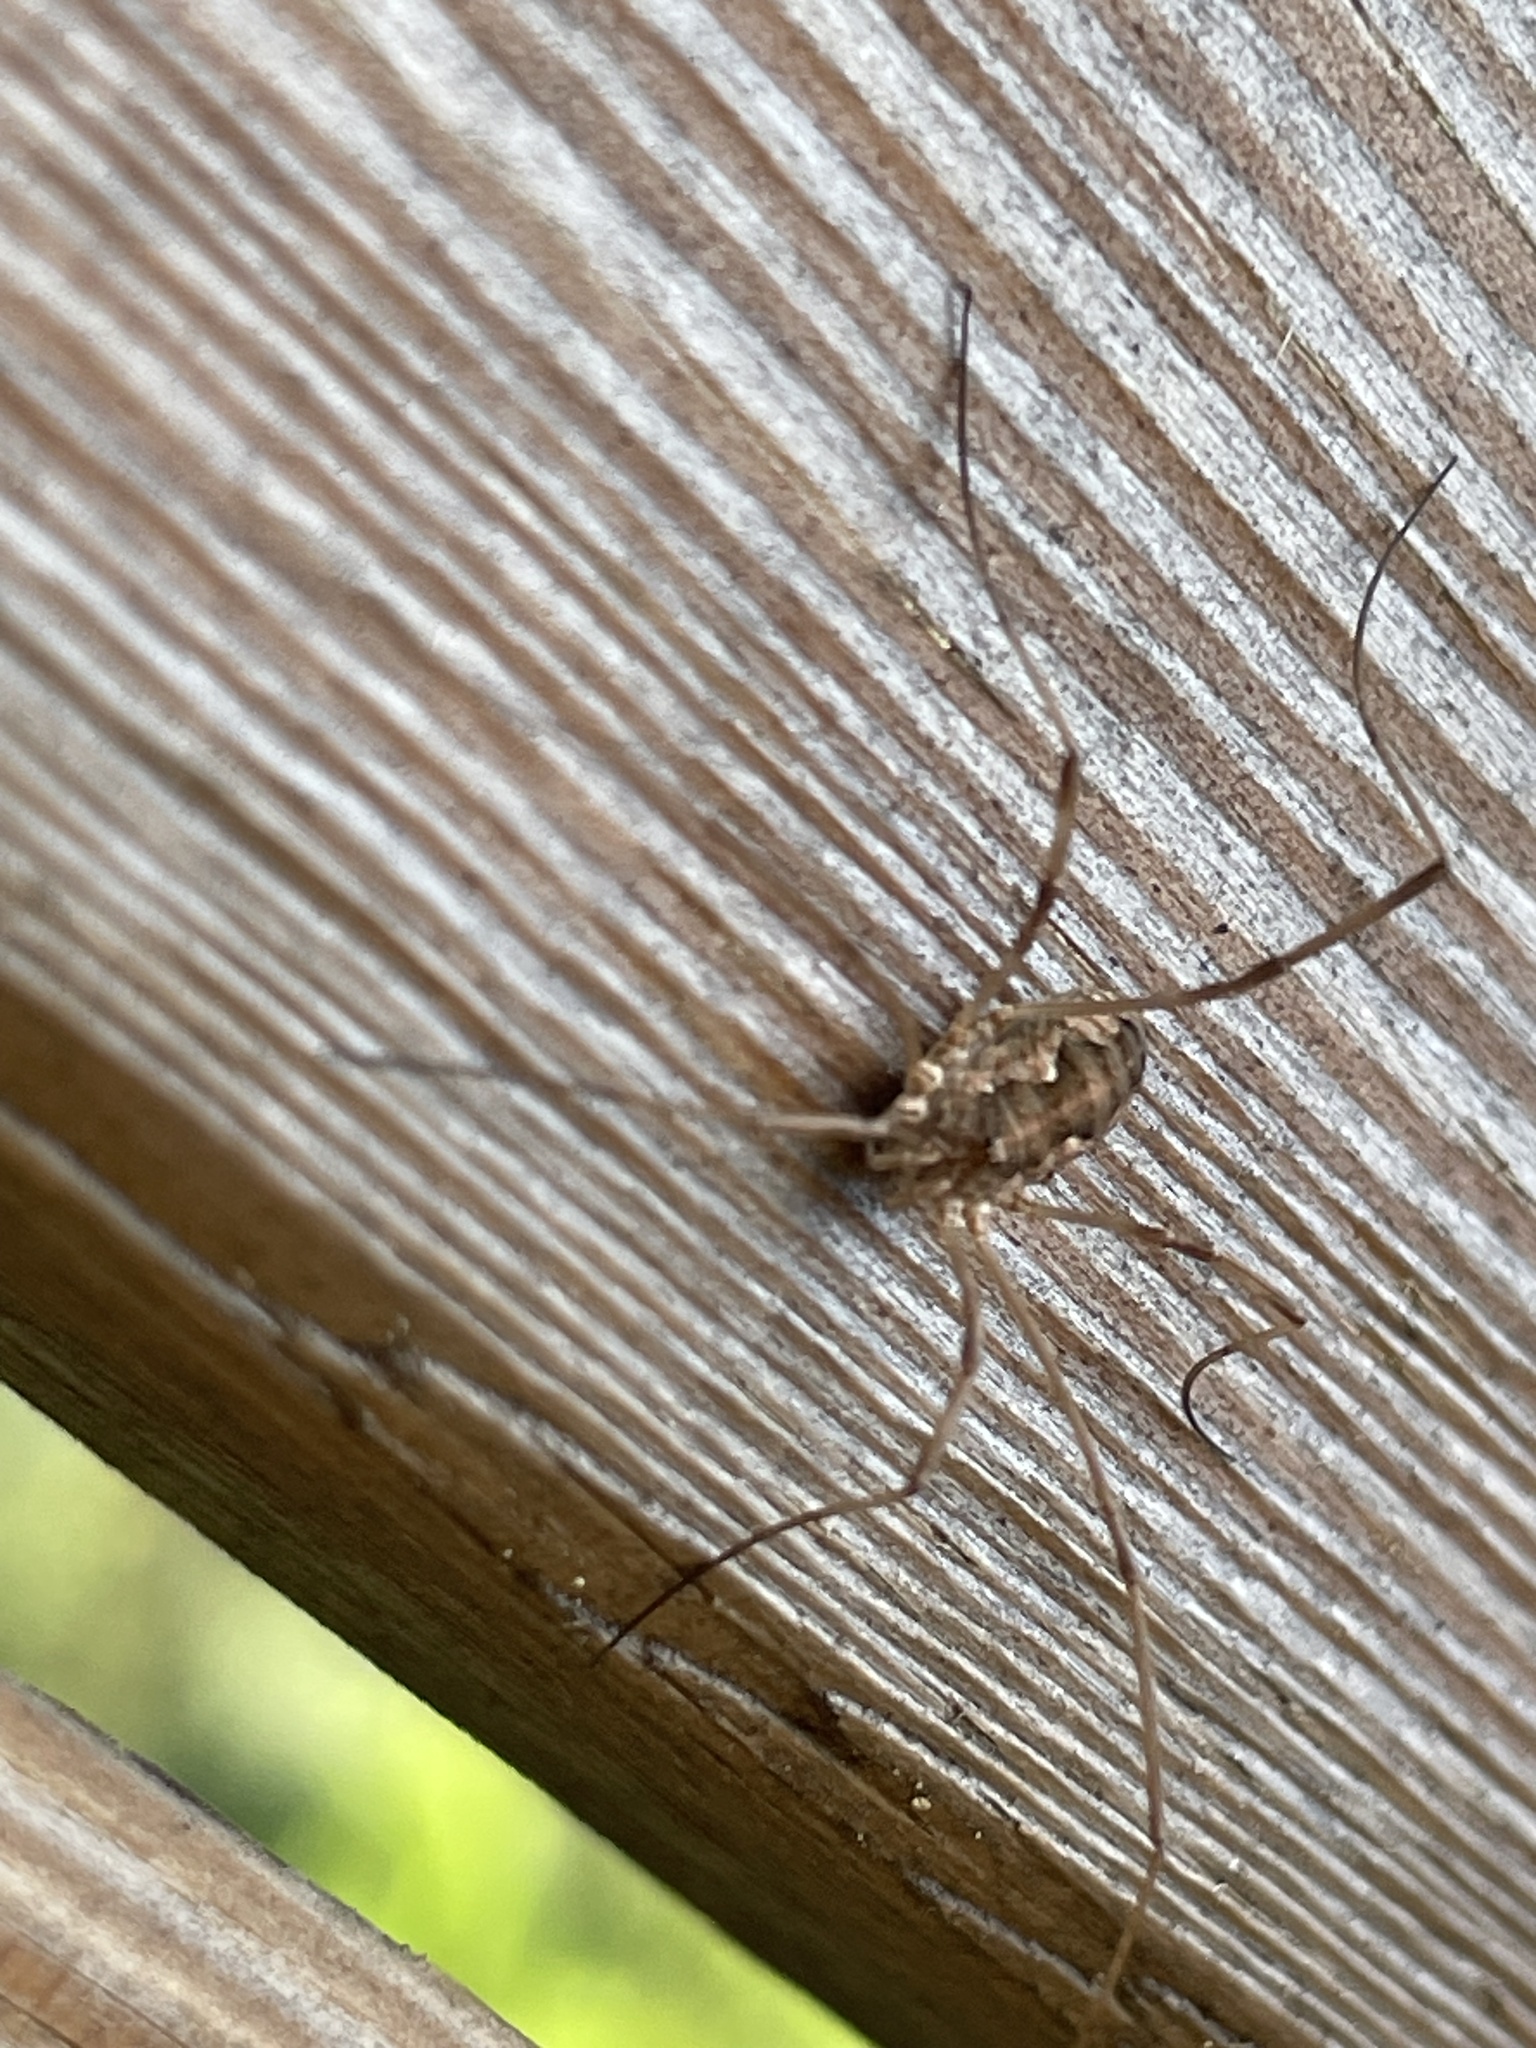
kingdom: Animalia
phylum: Arthropoda
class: Arachnida
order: Opiliones
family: Phalangiidae
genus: Phalangium
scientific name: Phalangium opilio
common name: Daddy longleg
